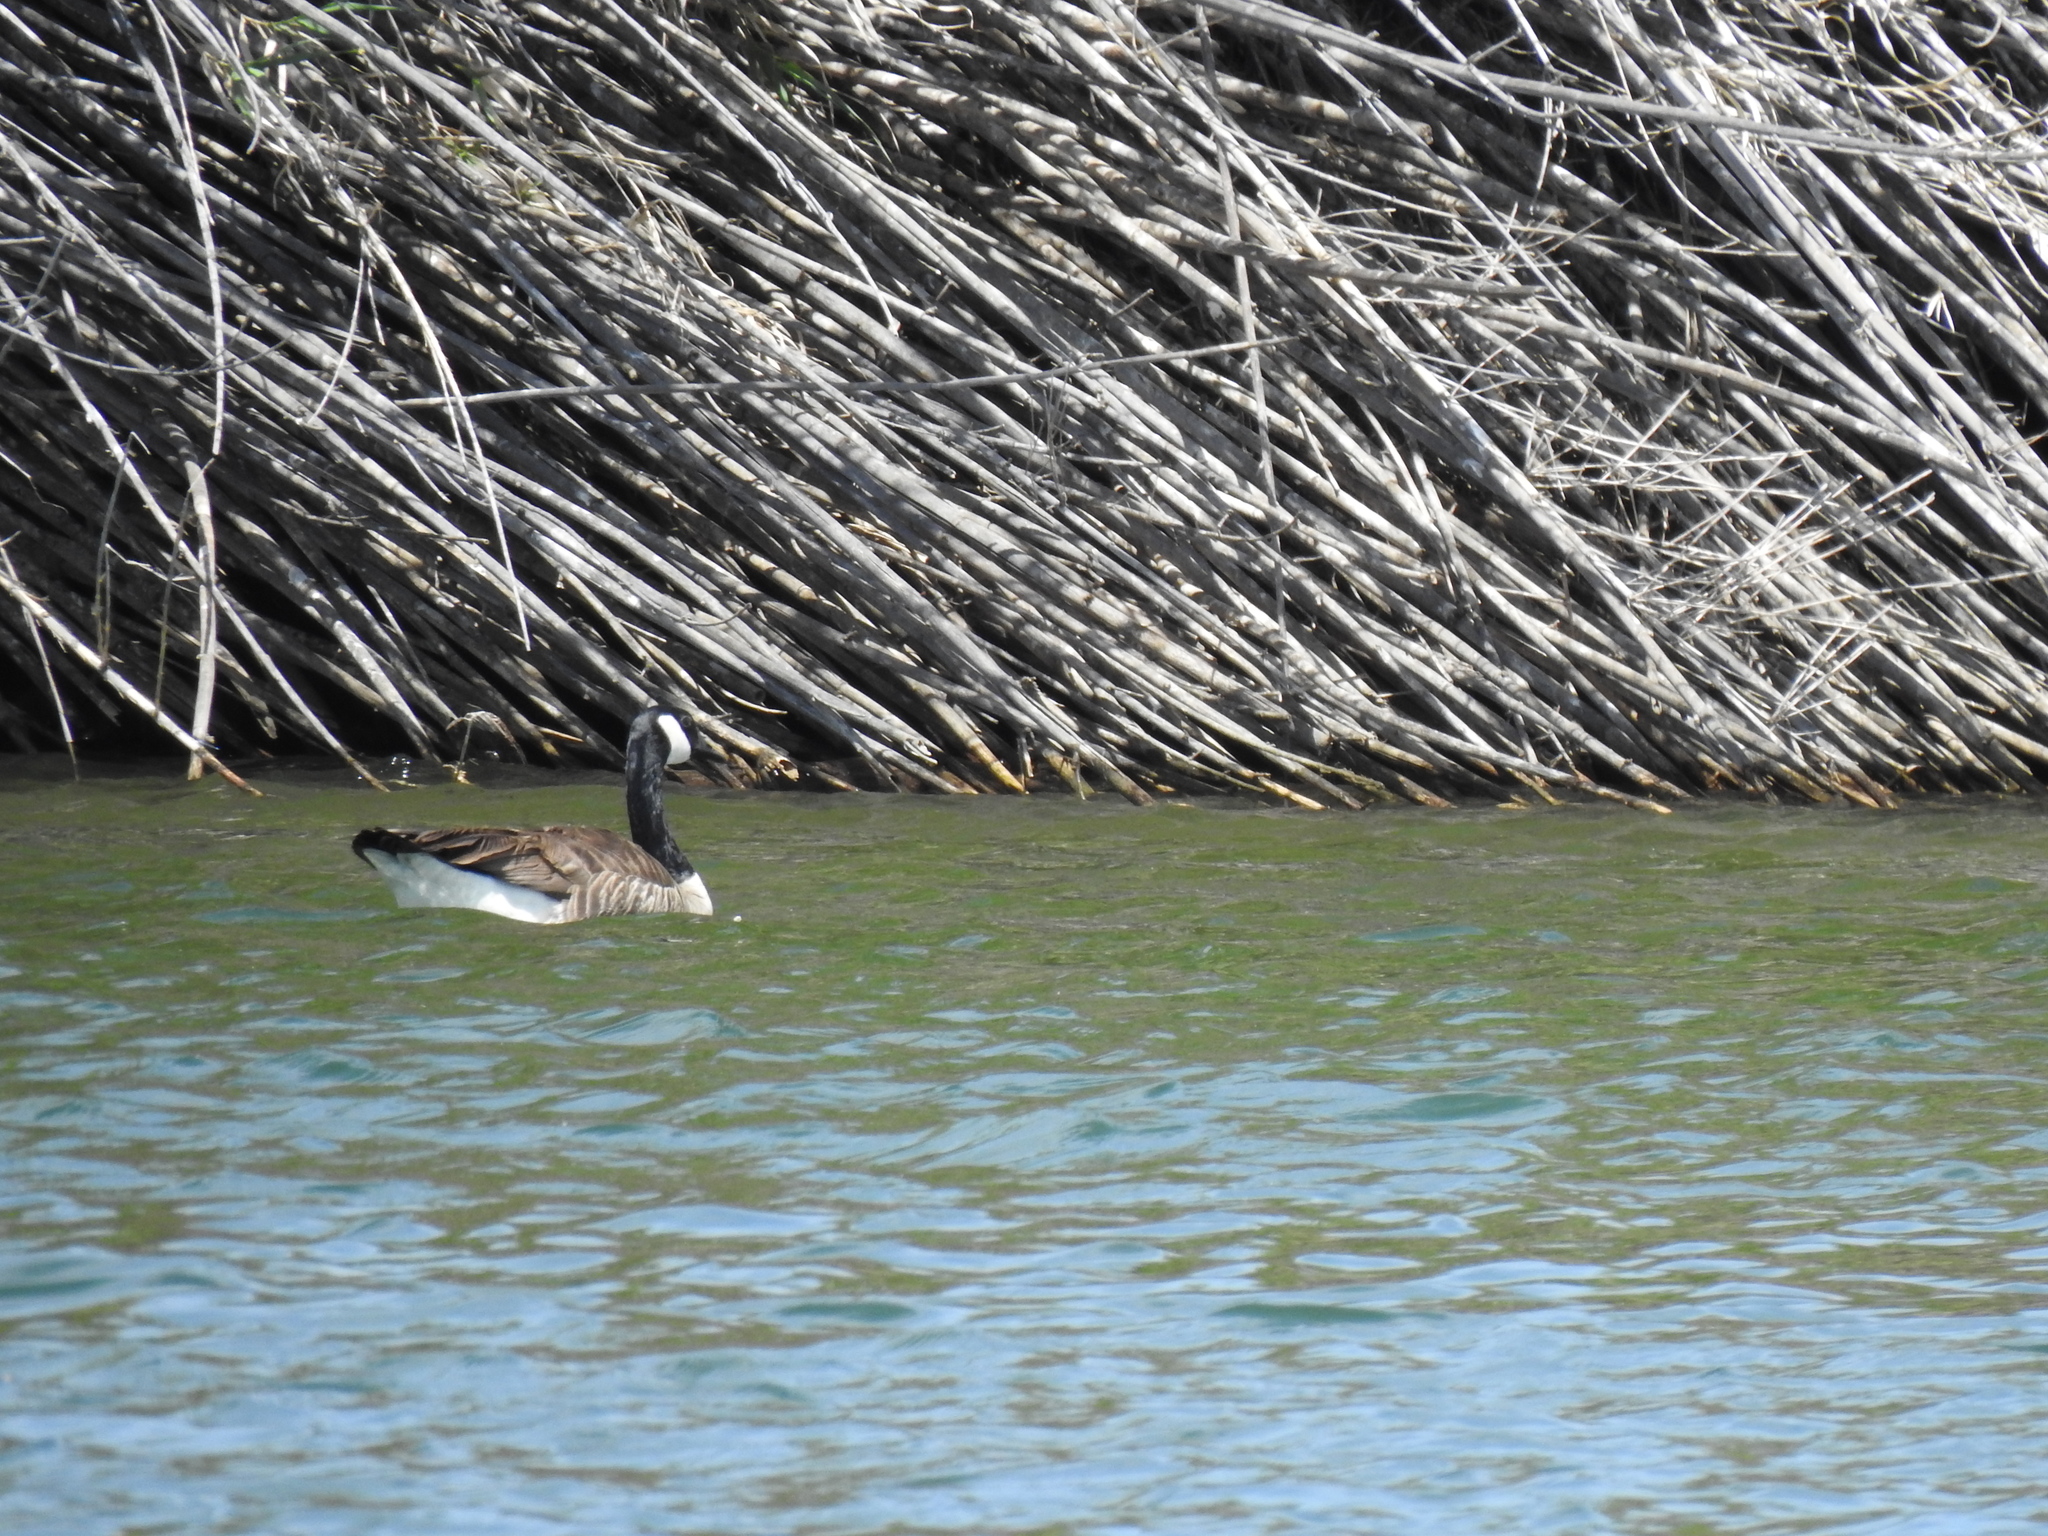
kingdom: Animalia
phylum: Chordata
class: Aves
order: Anseriformes
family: Anatidae
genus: Branta
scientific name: Branta canadensis
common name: Canada goose
